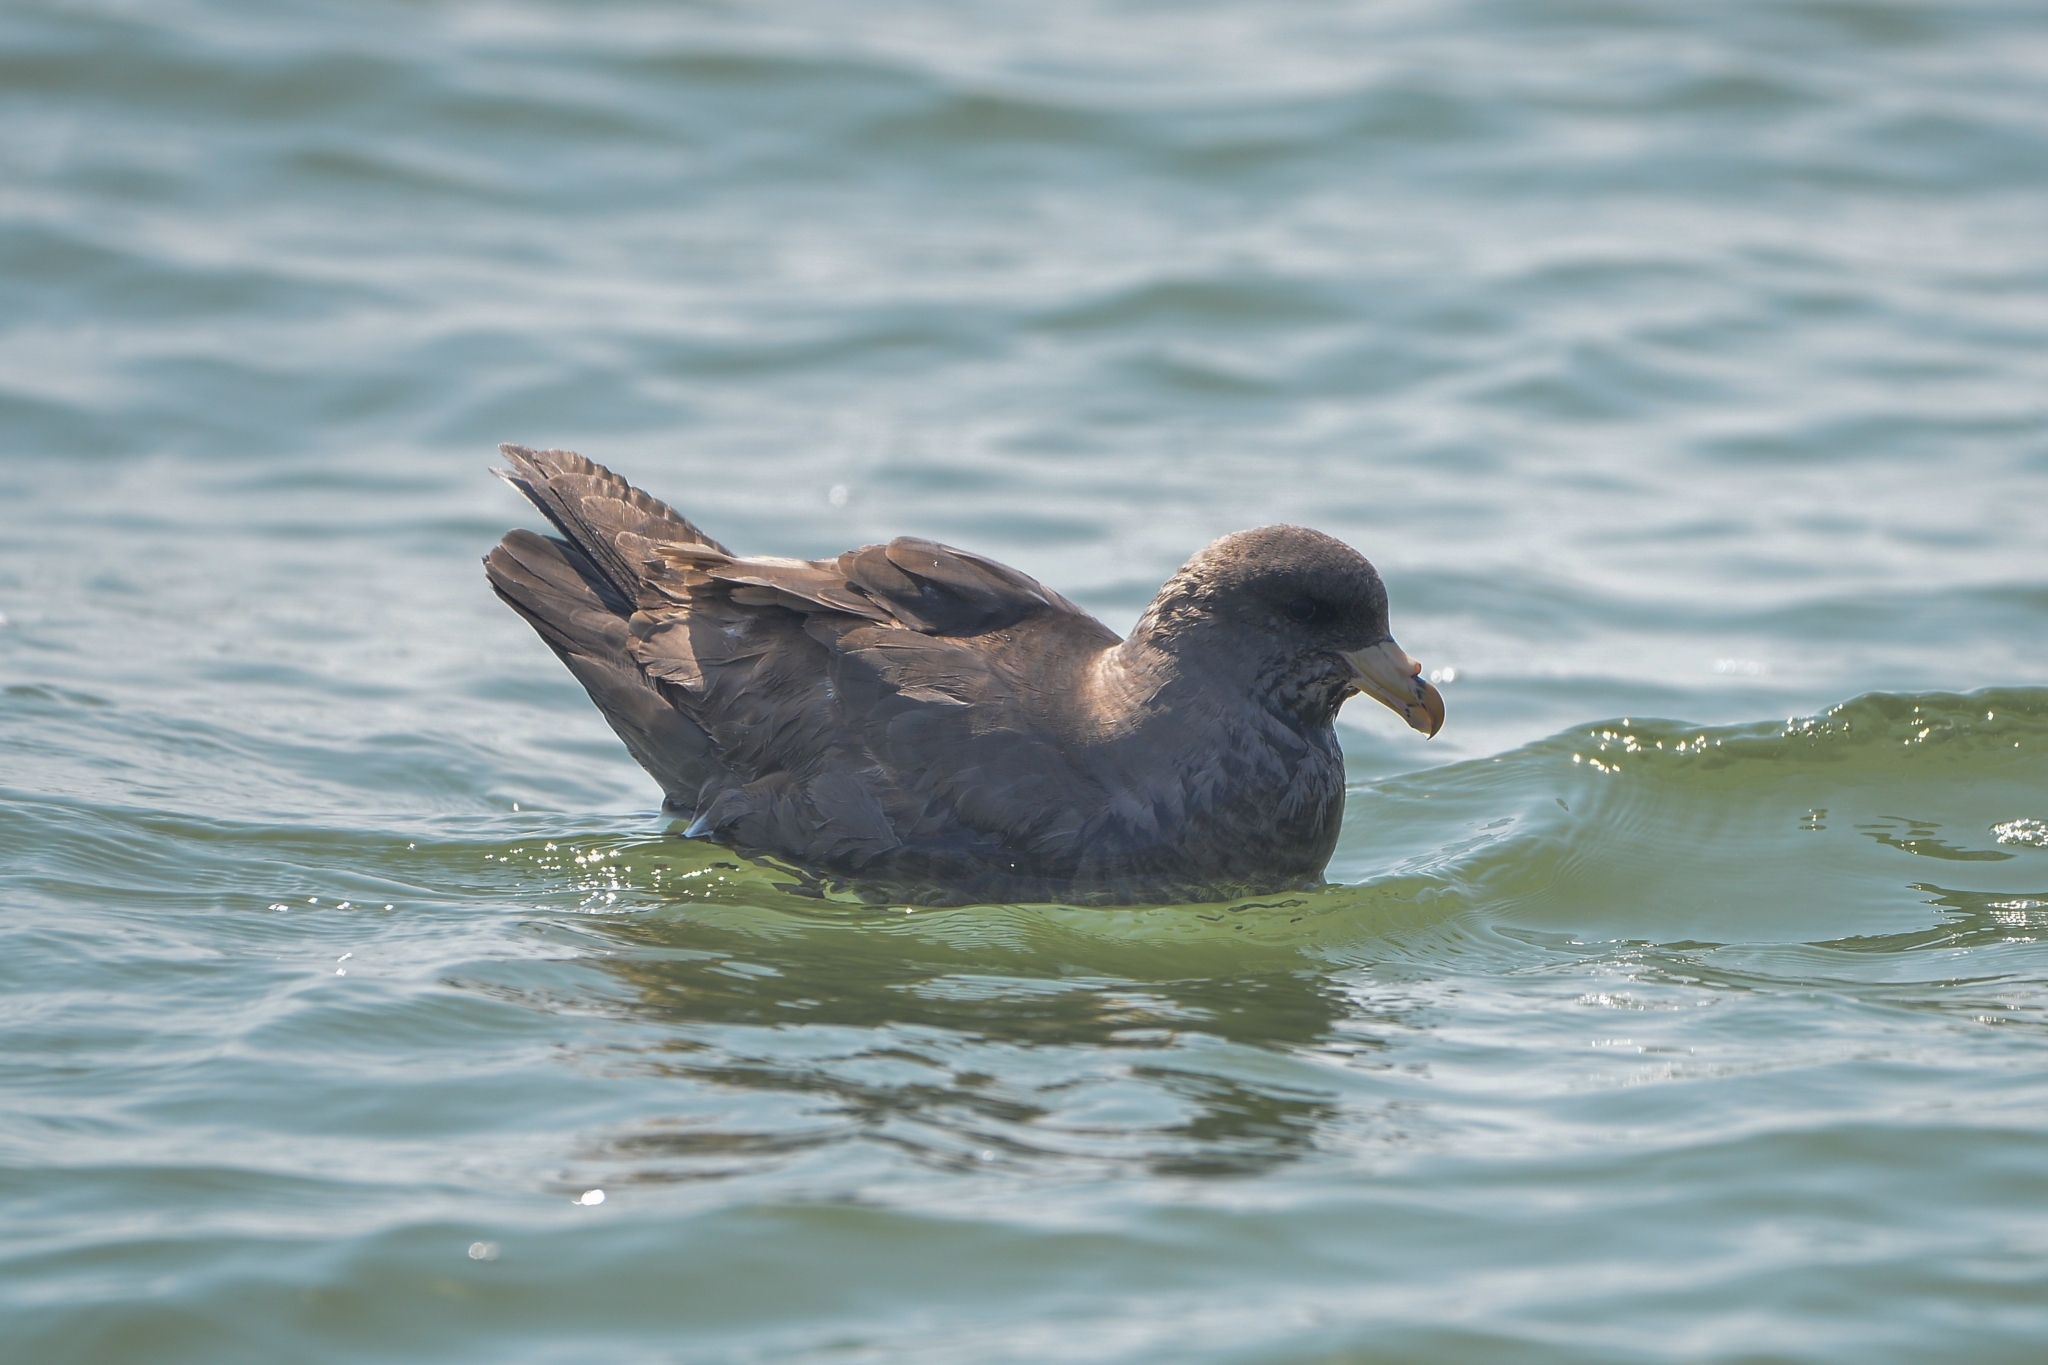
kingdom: Animalia
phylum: Chordata
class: Aves
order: Procellariiformes
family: Procellariidae
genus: Fulmarus
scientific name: Fulmarus glacialis
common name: Northern fulmar
